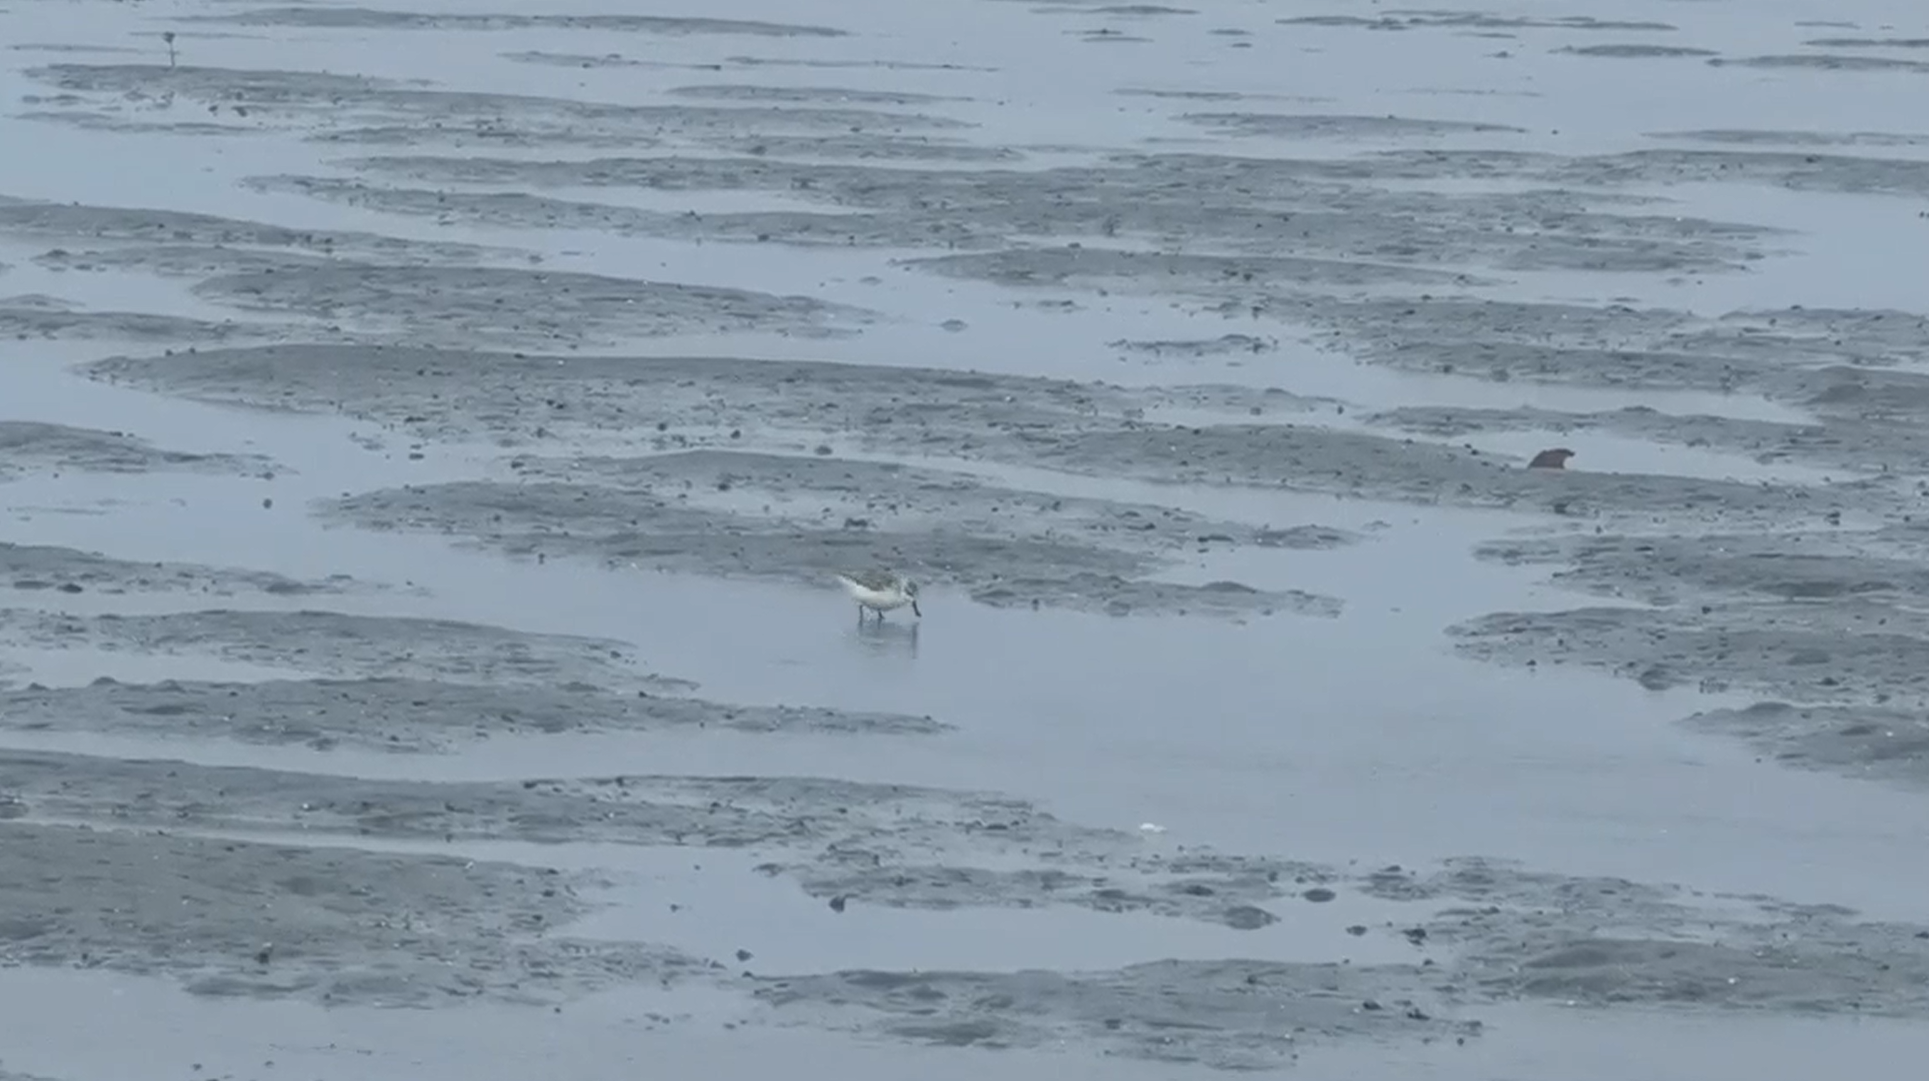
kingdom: Animalia
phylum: Chordata
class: Aves
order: Charadriiformes
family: Scolopacidae
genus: Calidris
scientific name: Calidris pygmaea
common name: Spoon-billed sandpiper
